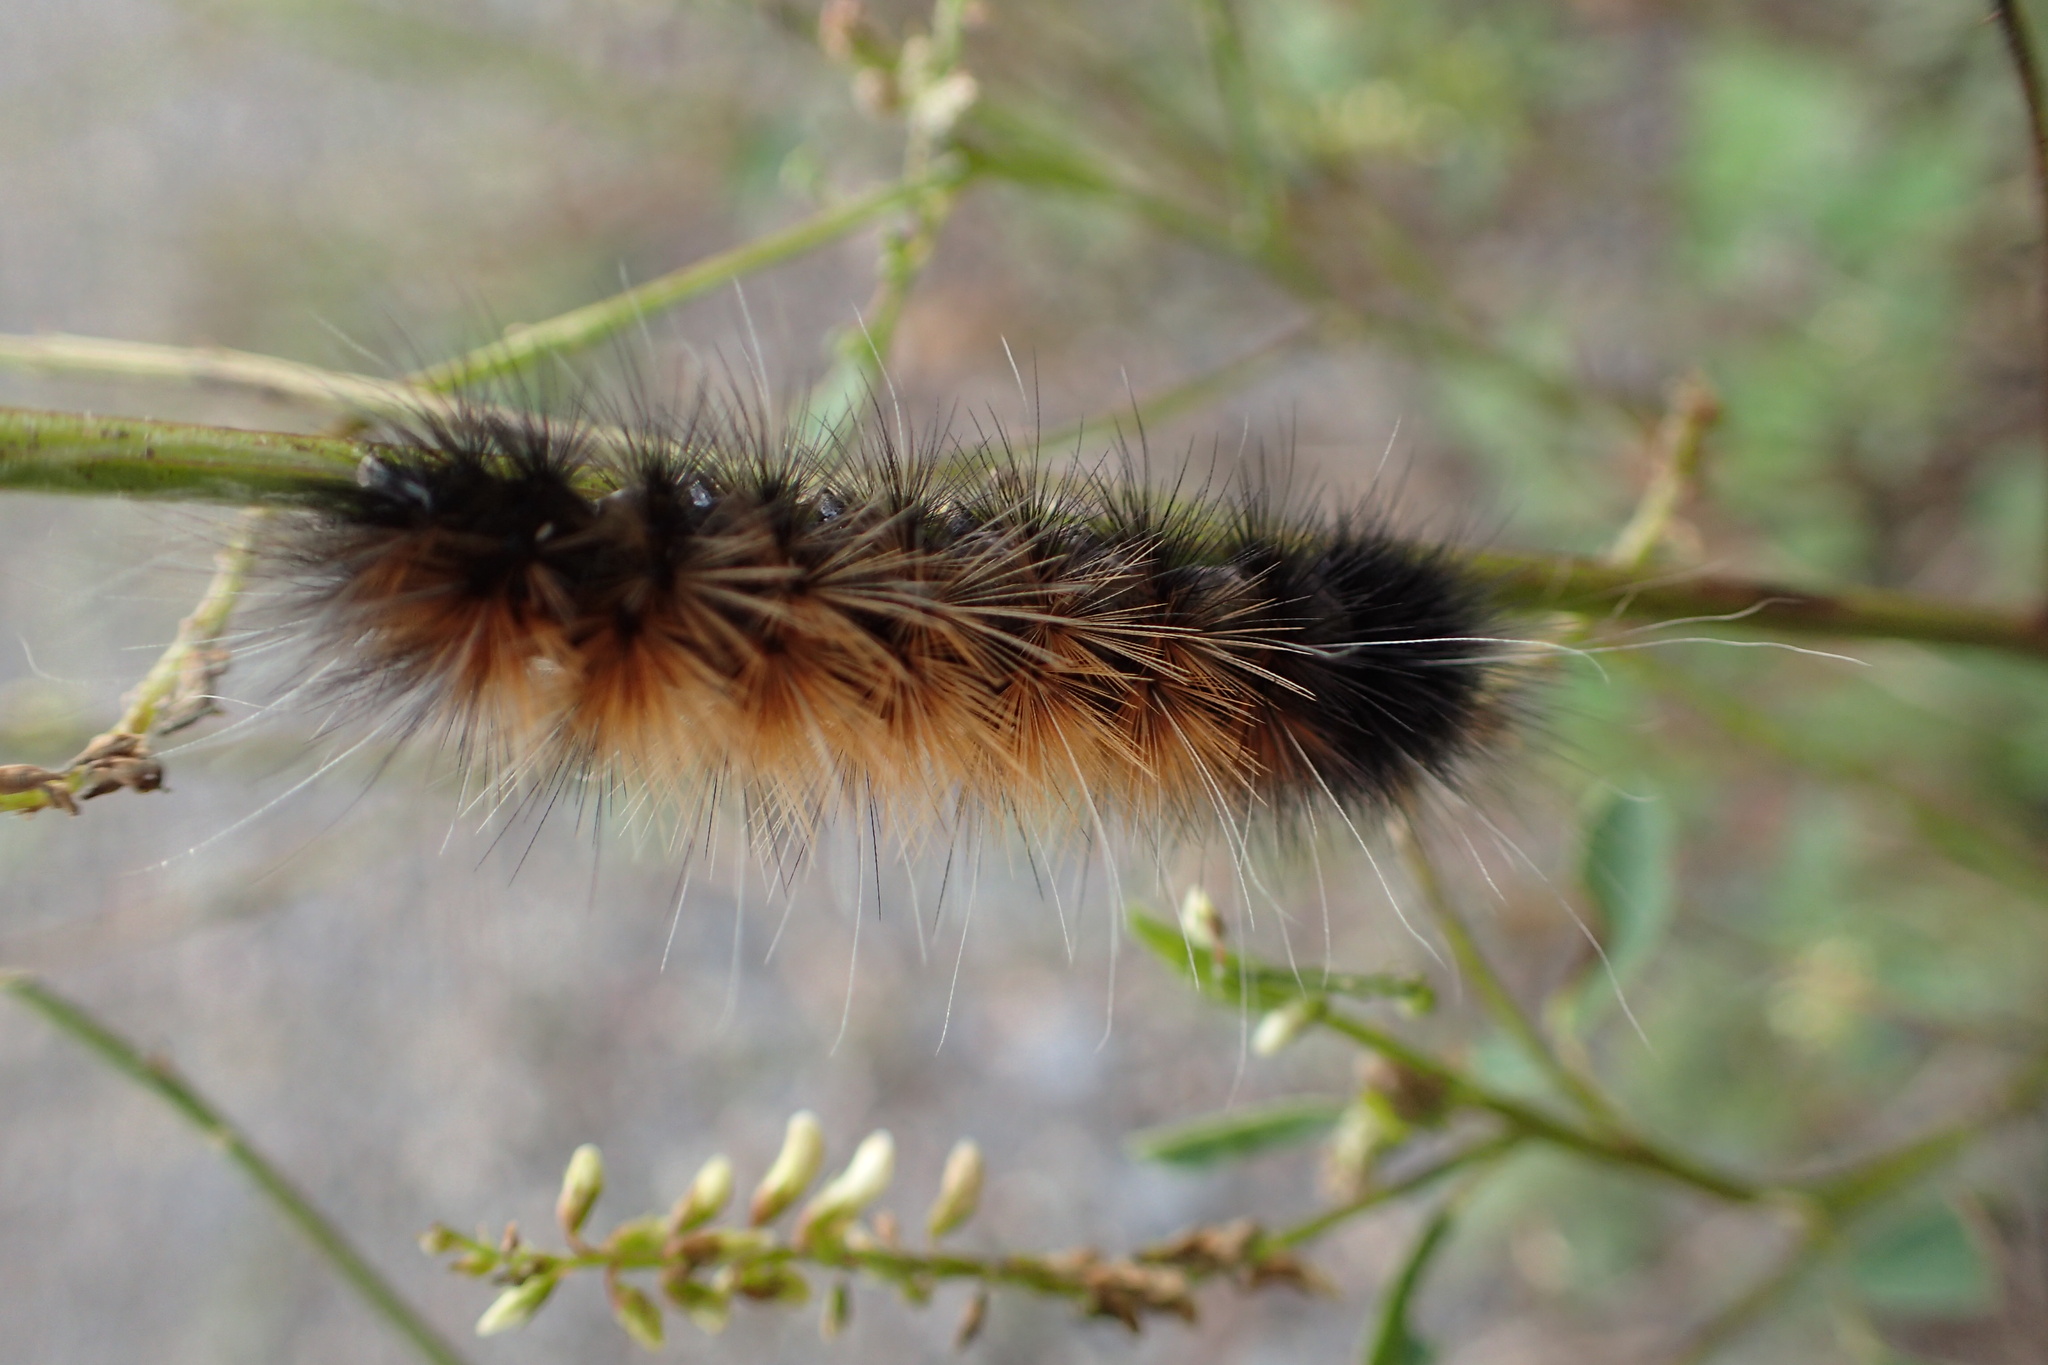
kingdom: Animalia
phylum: Arthropoda
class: Insecta
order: Lepidoptera
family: Erebidae
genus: Spilosoma
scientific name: Spilosoma virginica
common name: Virginia tiger moth
